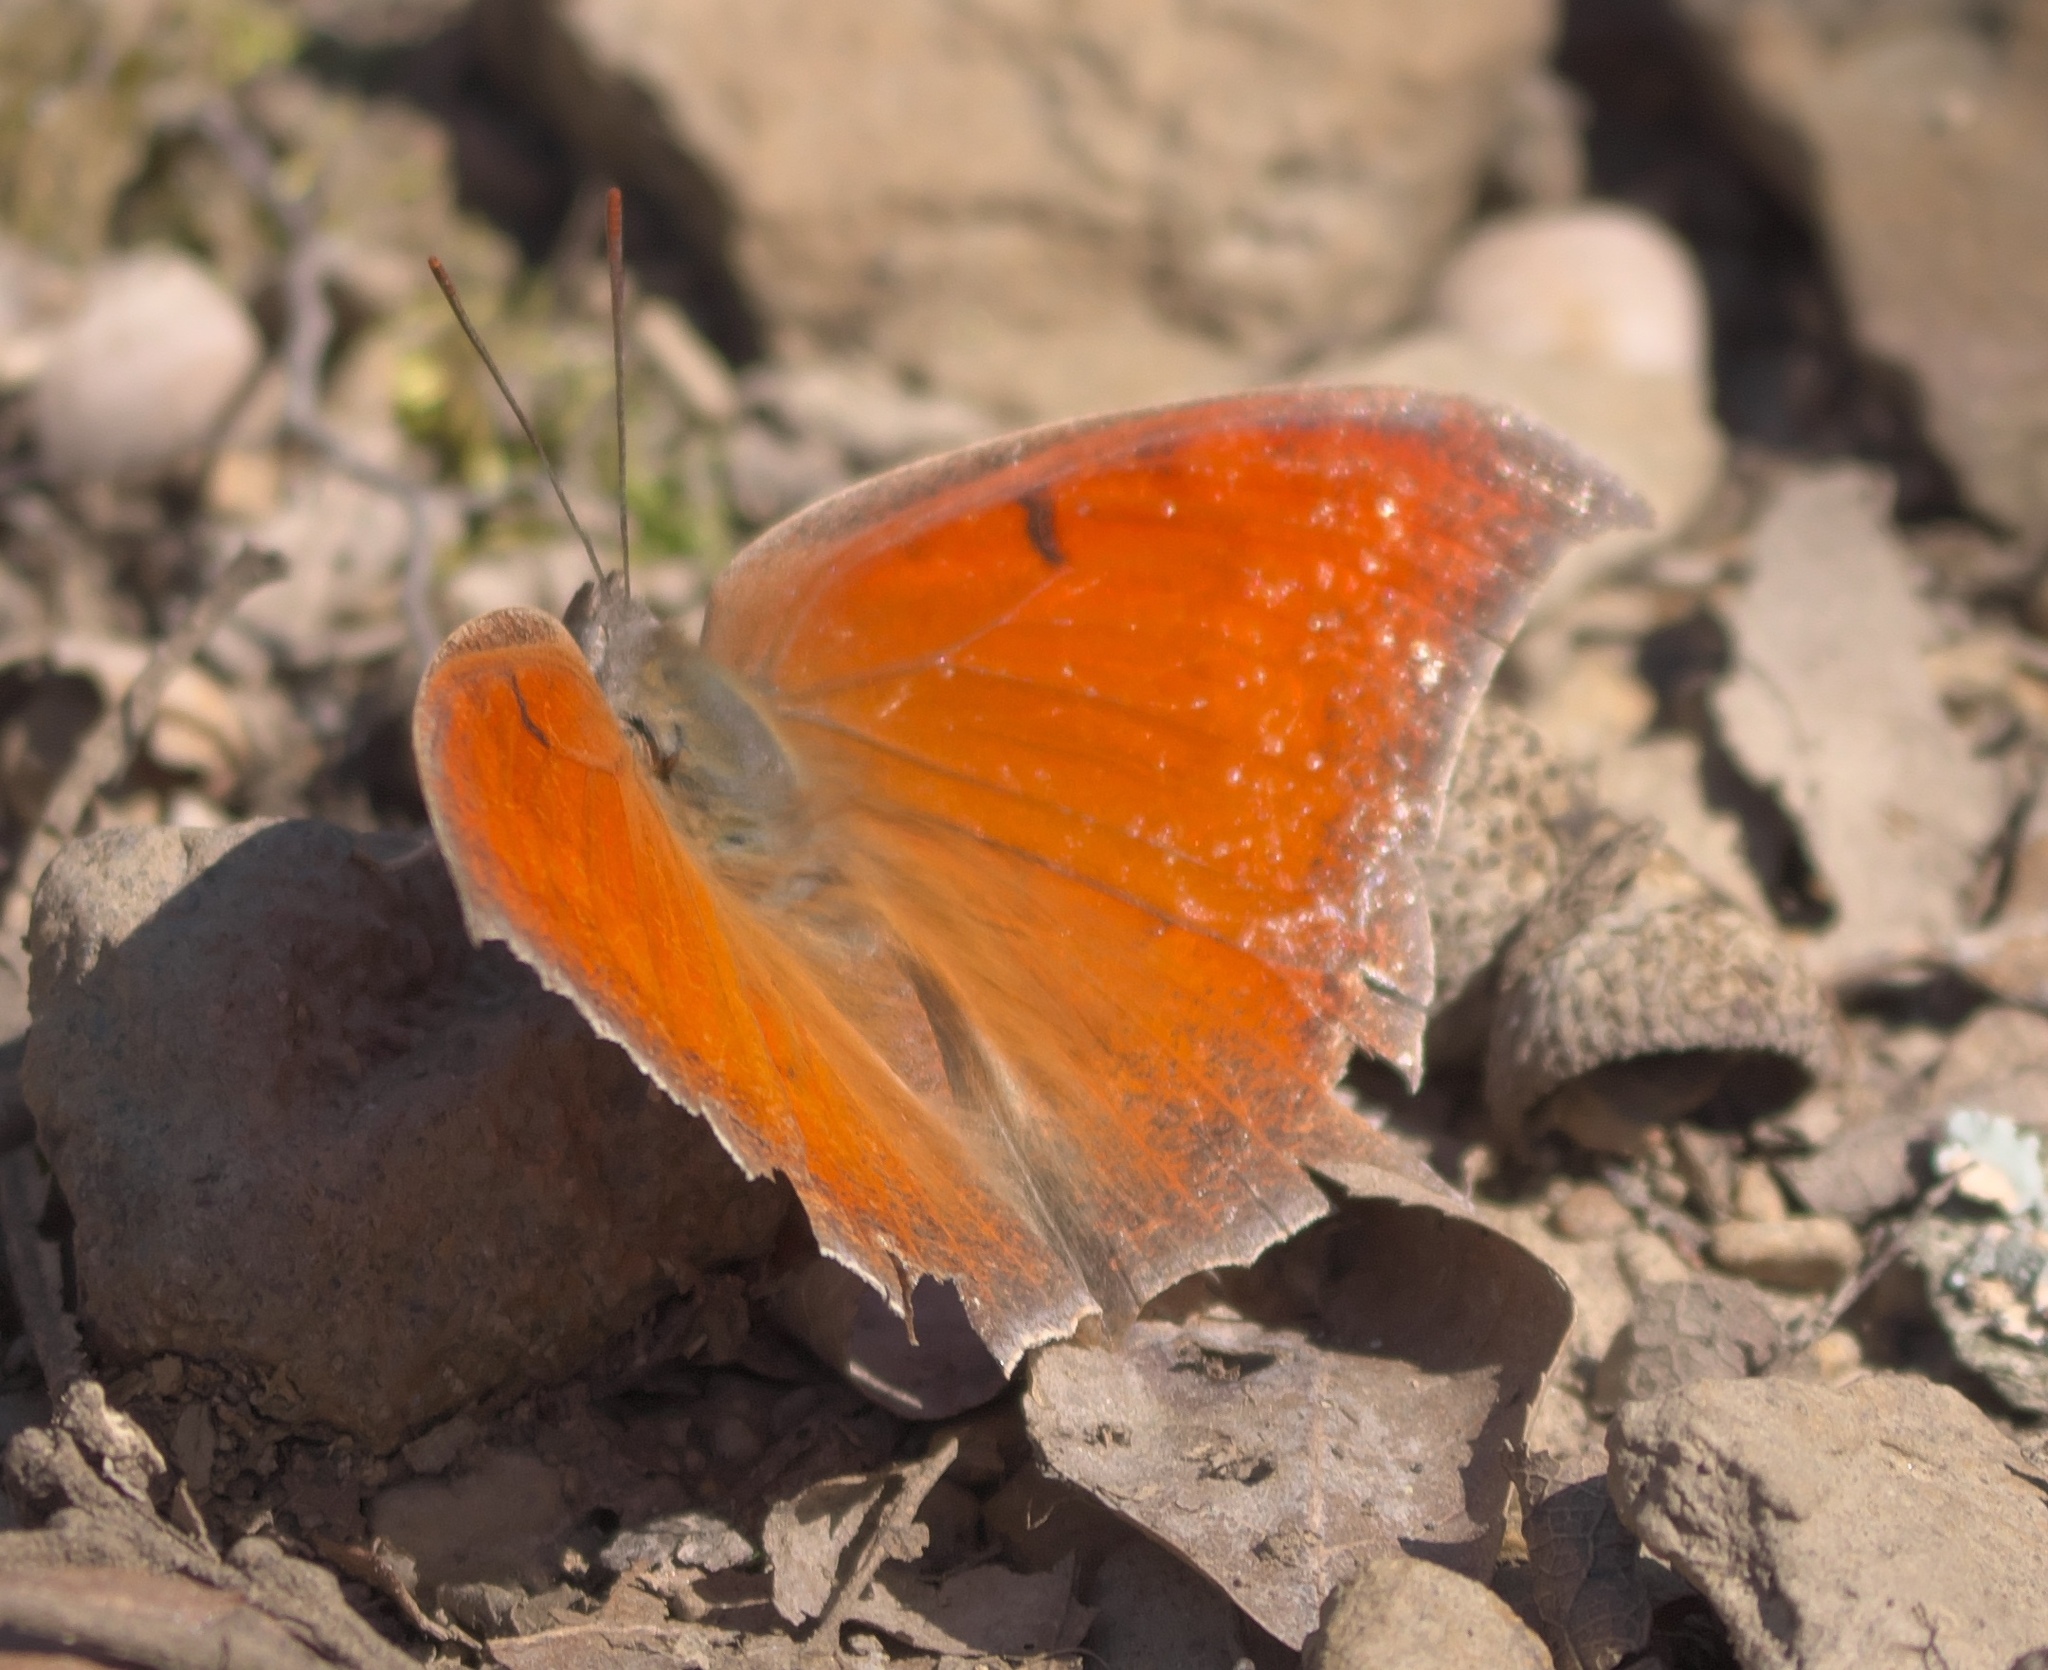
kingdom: Animalia
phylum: Arthropoda
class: Insecta
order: Lepidoptera
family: Nymphalidae
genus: Anaea
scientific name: Anaea andria
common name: Goatweed leafwing
